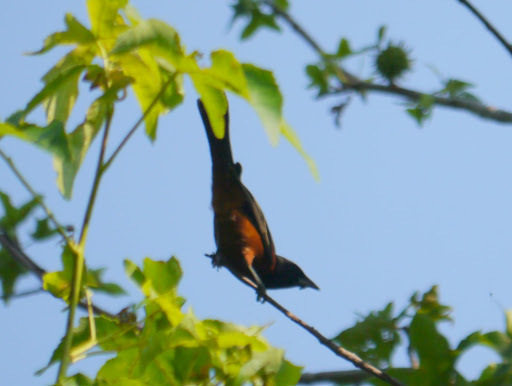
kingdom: Animalia
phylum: Chordata
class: Aves
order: Passeriformes
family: Icteridae
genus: Icterus
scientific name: Icterus spurius
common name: Orchard oriole
